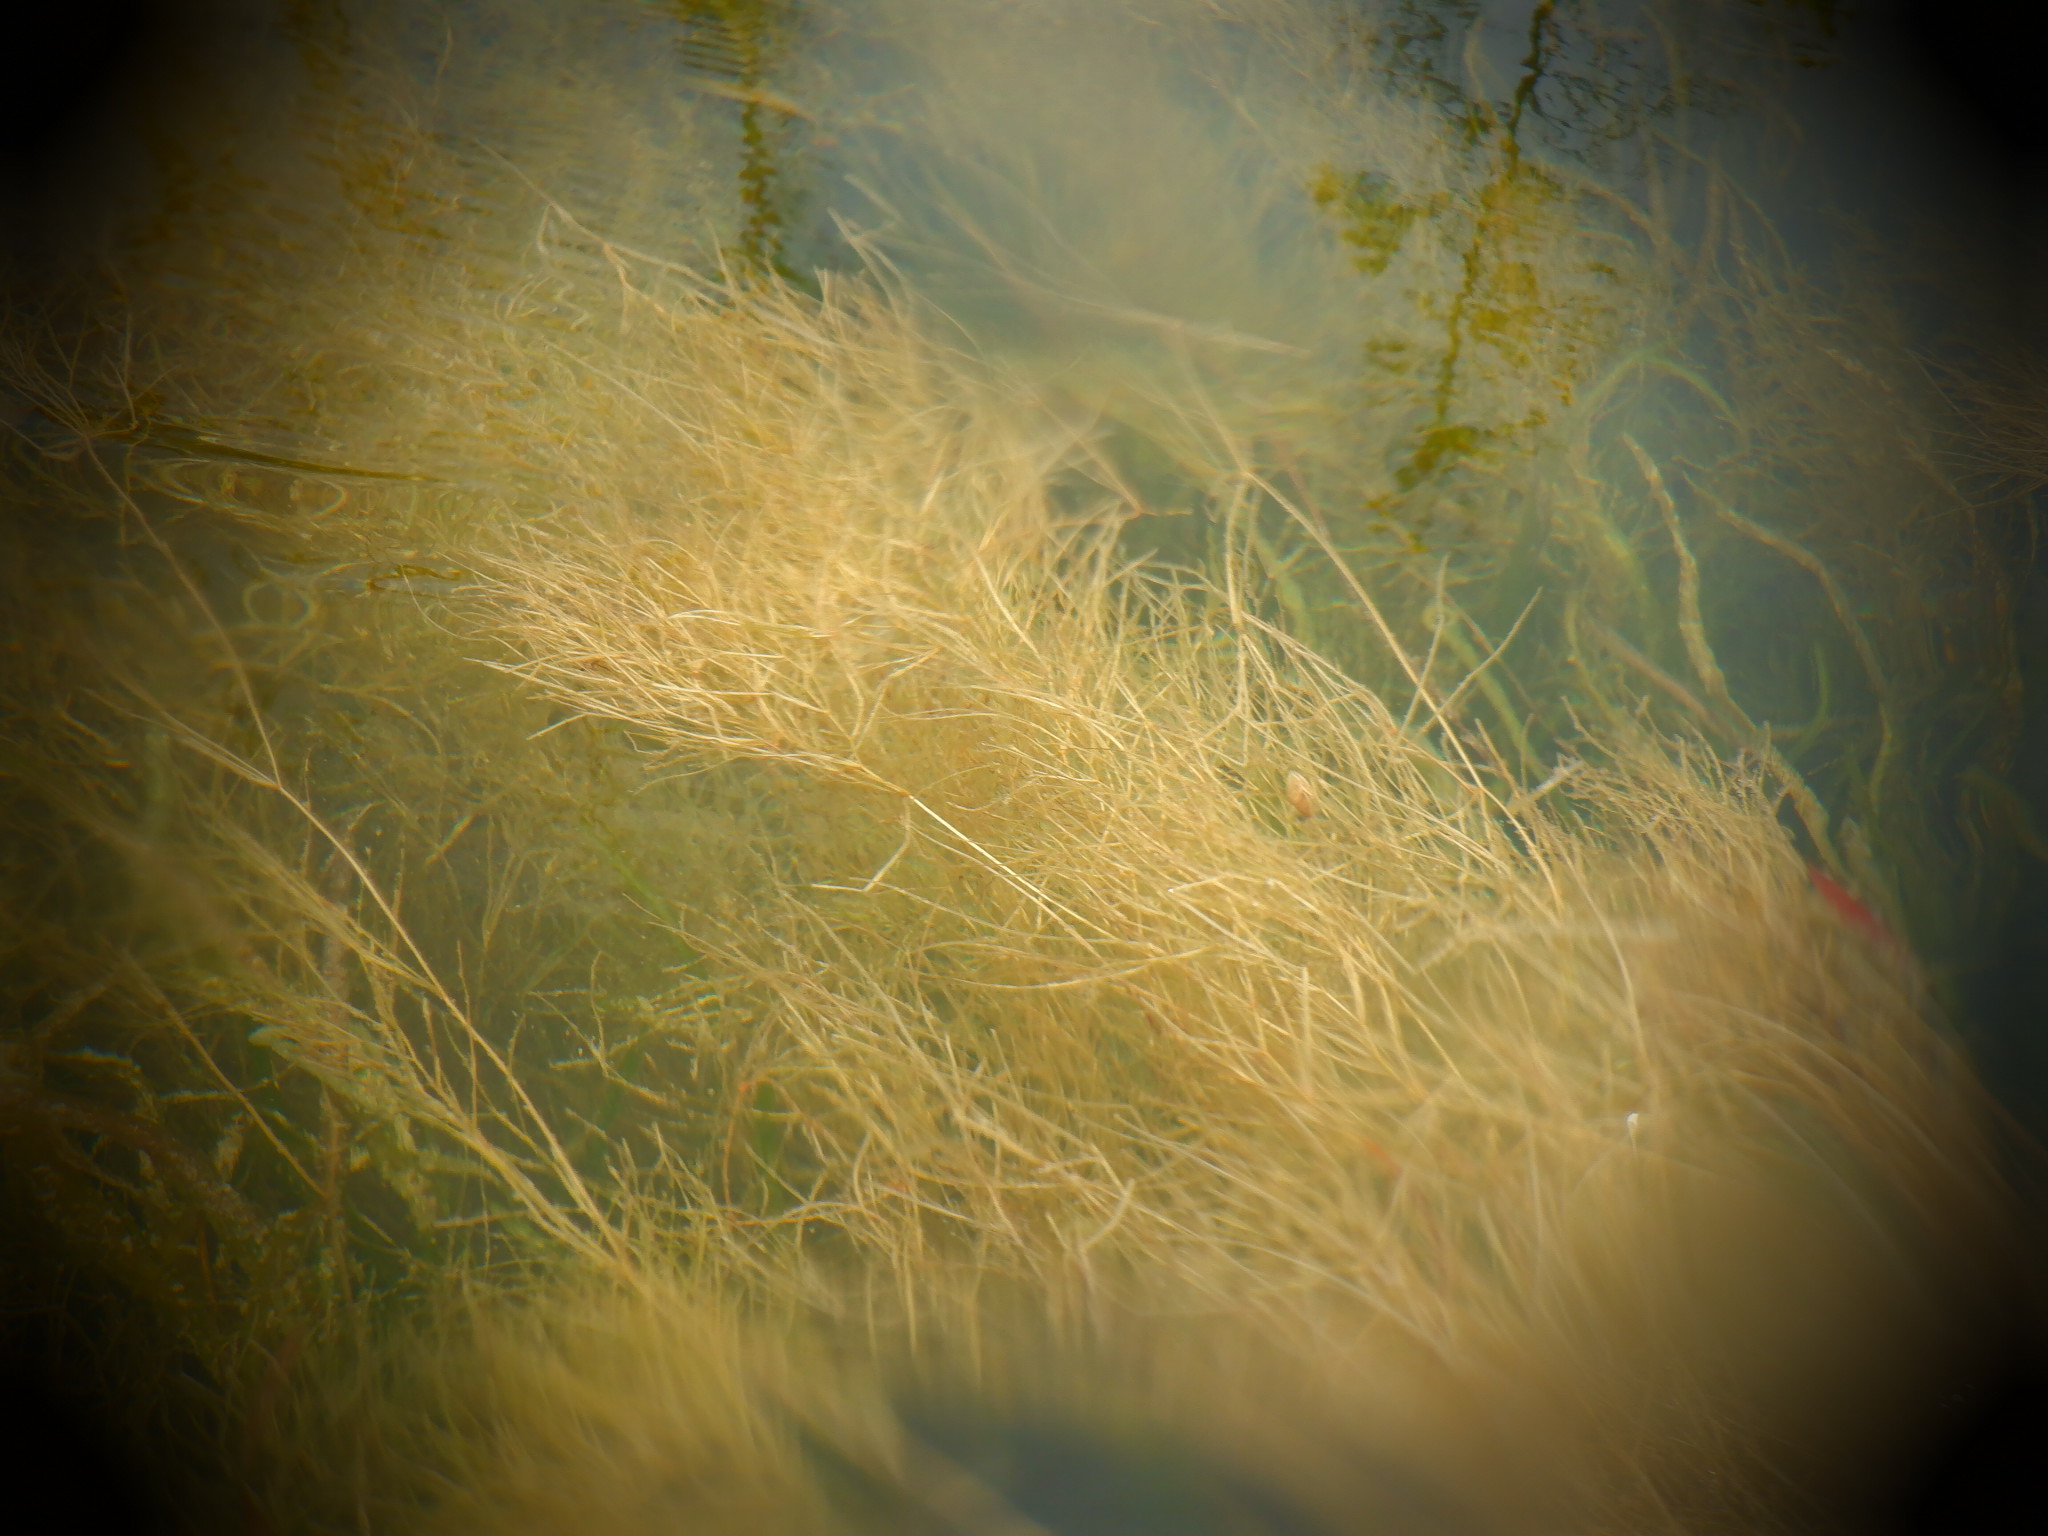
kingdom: Plantae
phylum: Tracheophyta
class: Liliopsida
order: Alismatales
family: Potamogetonaceae
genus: Stuckenia
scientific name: Stuckenia pectinata
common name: Sago pondweed
